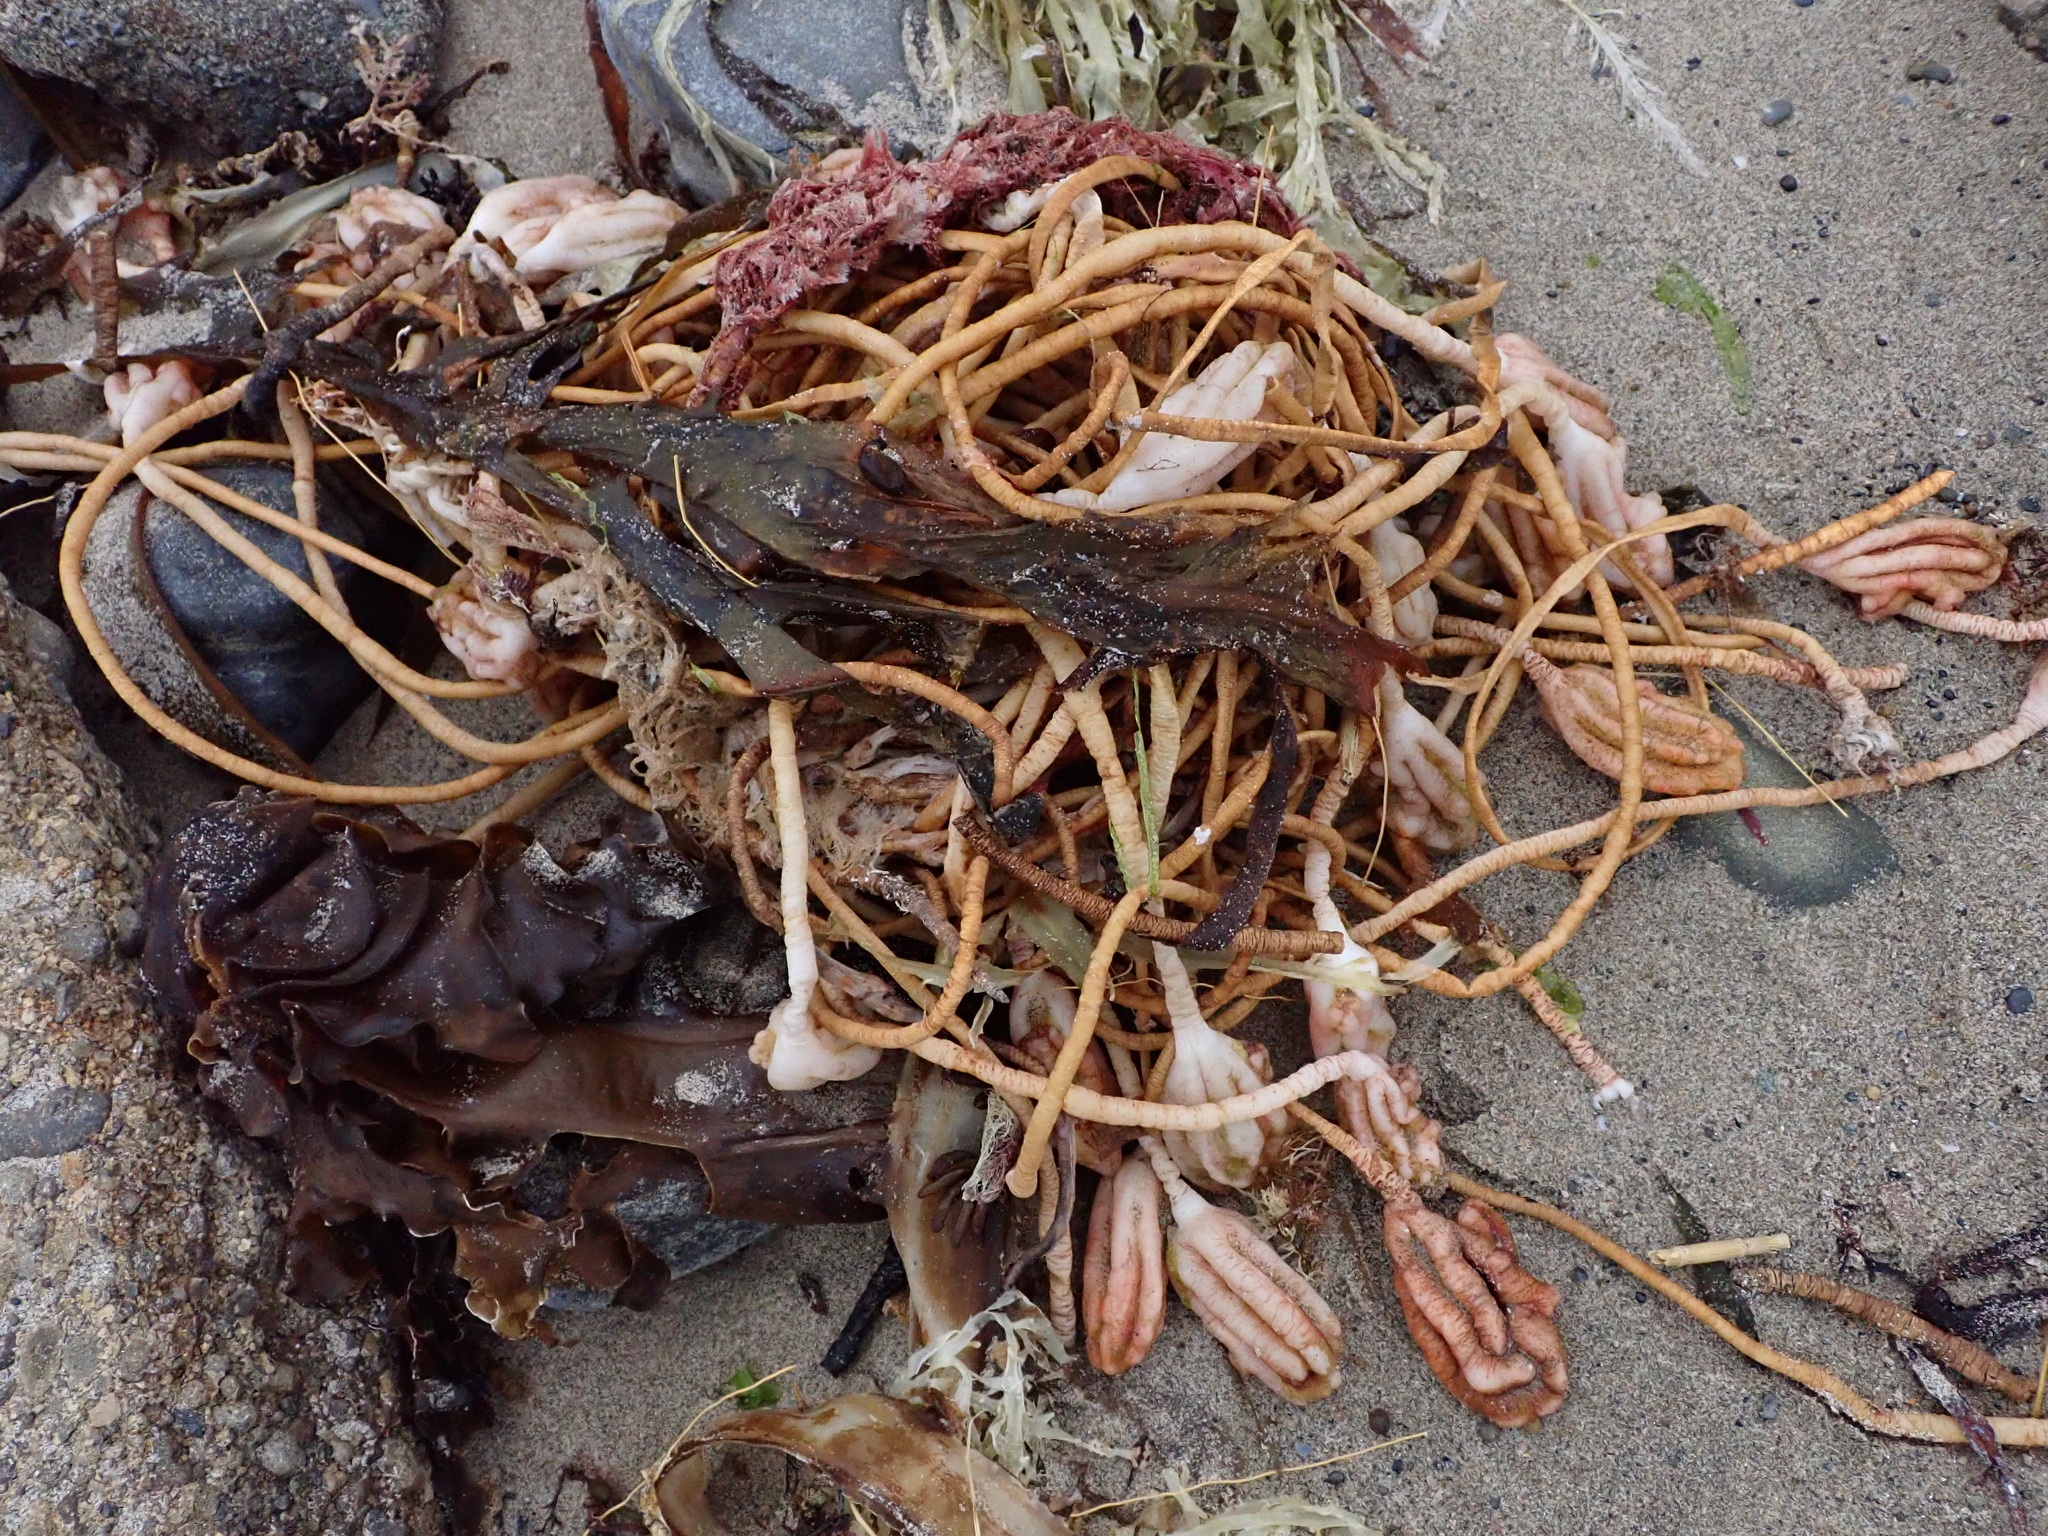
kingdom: Animalia
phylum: Chordata
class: Ascidiacea
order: Stolidobranchia
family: Pyuridae
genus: Pyura
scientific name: Pyura pachydermatina
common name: Sea tulip
